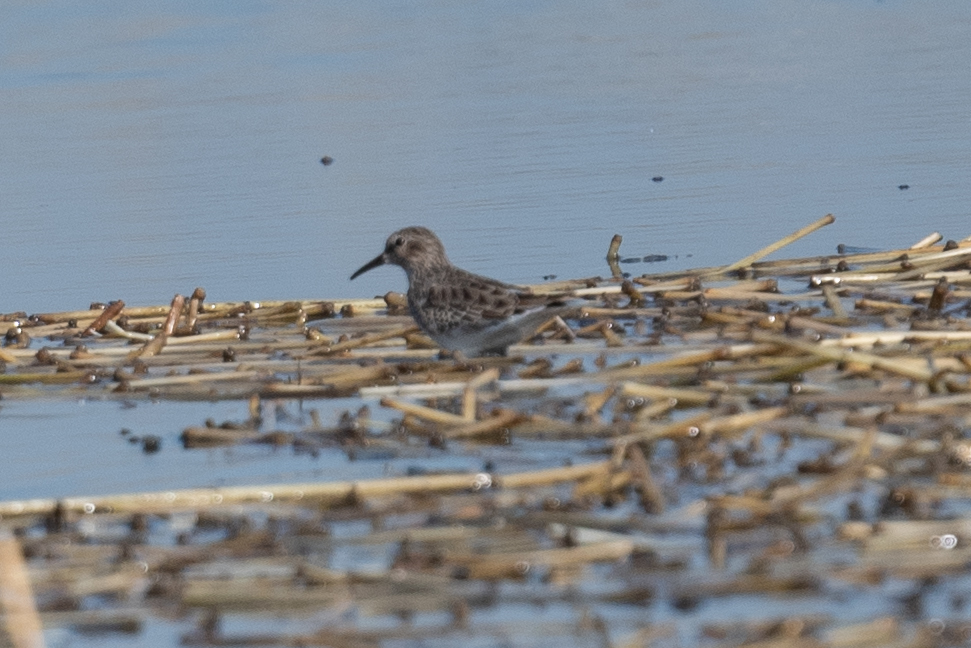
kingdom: Animalia
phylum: Chordata
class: Aves
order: Charadriiformes
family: Scolopacidae
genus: Calidris
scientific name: Calidris minutilla
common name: Least sandpiper
